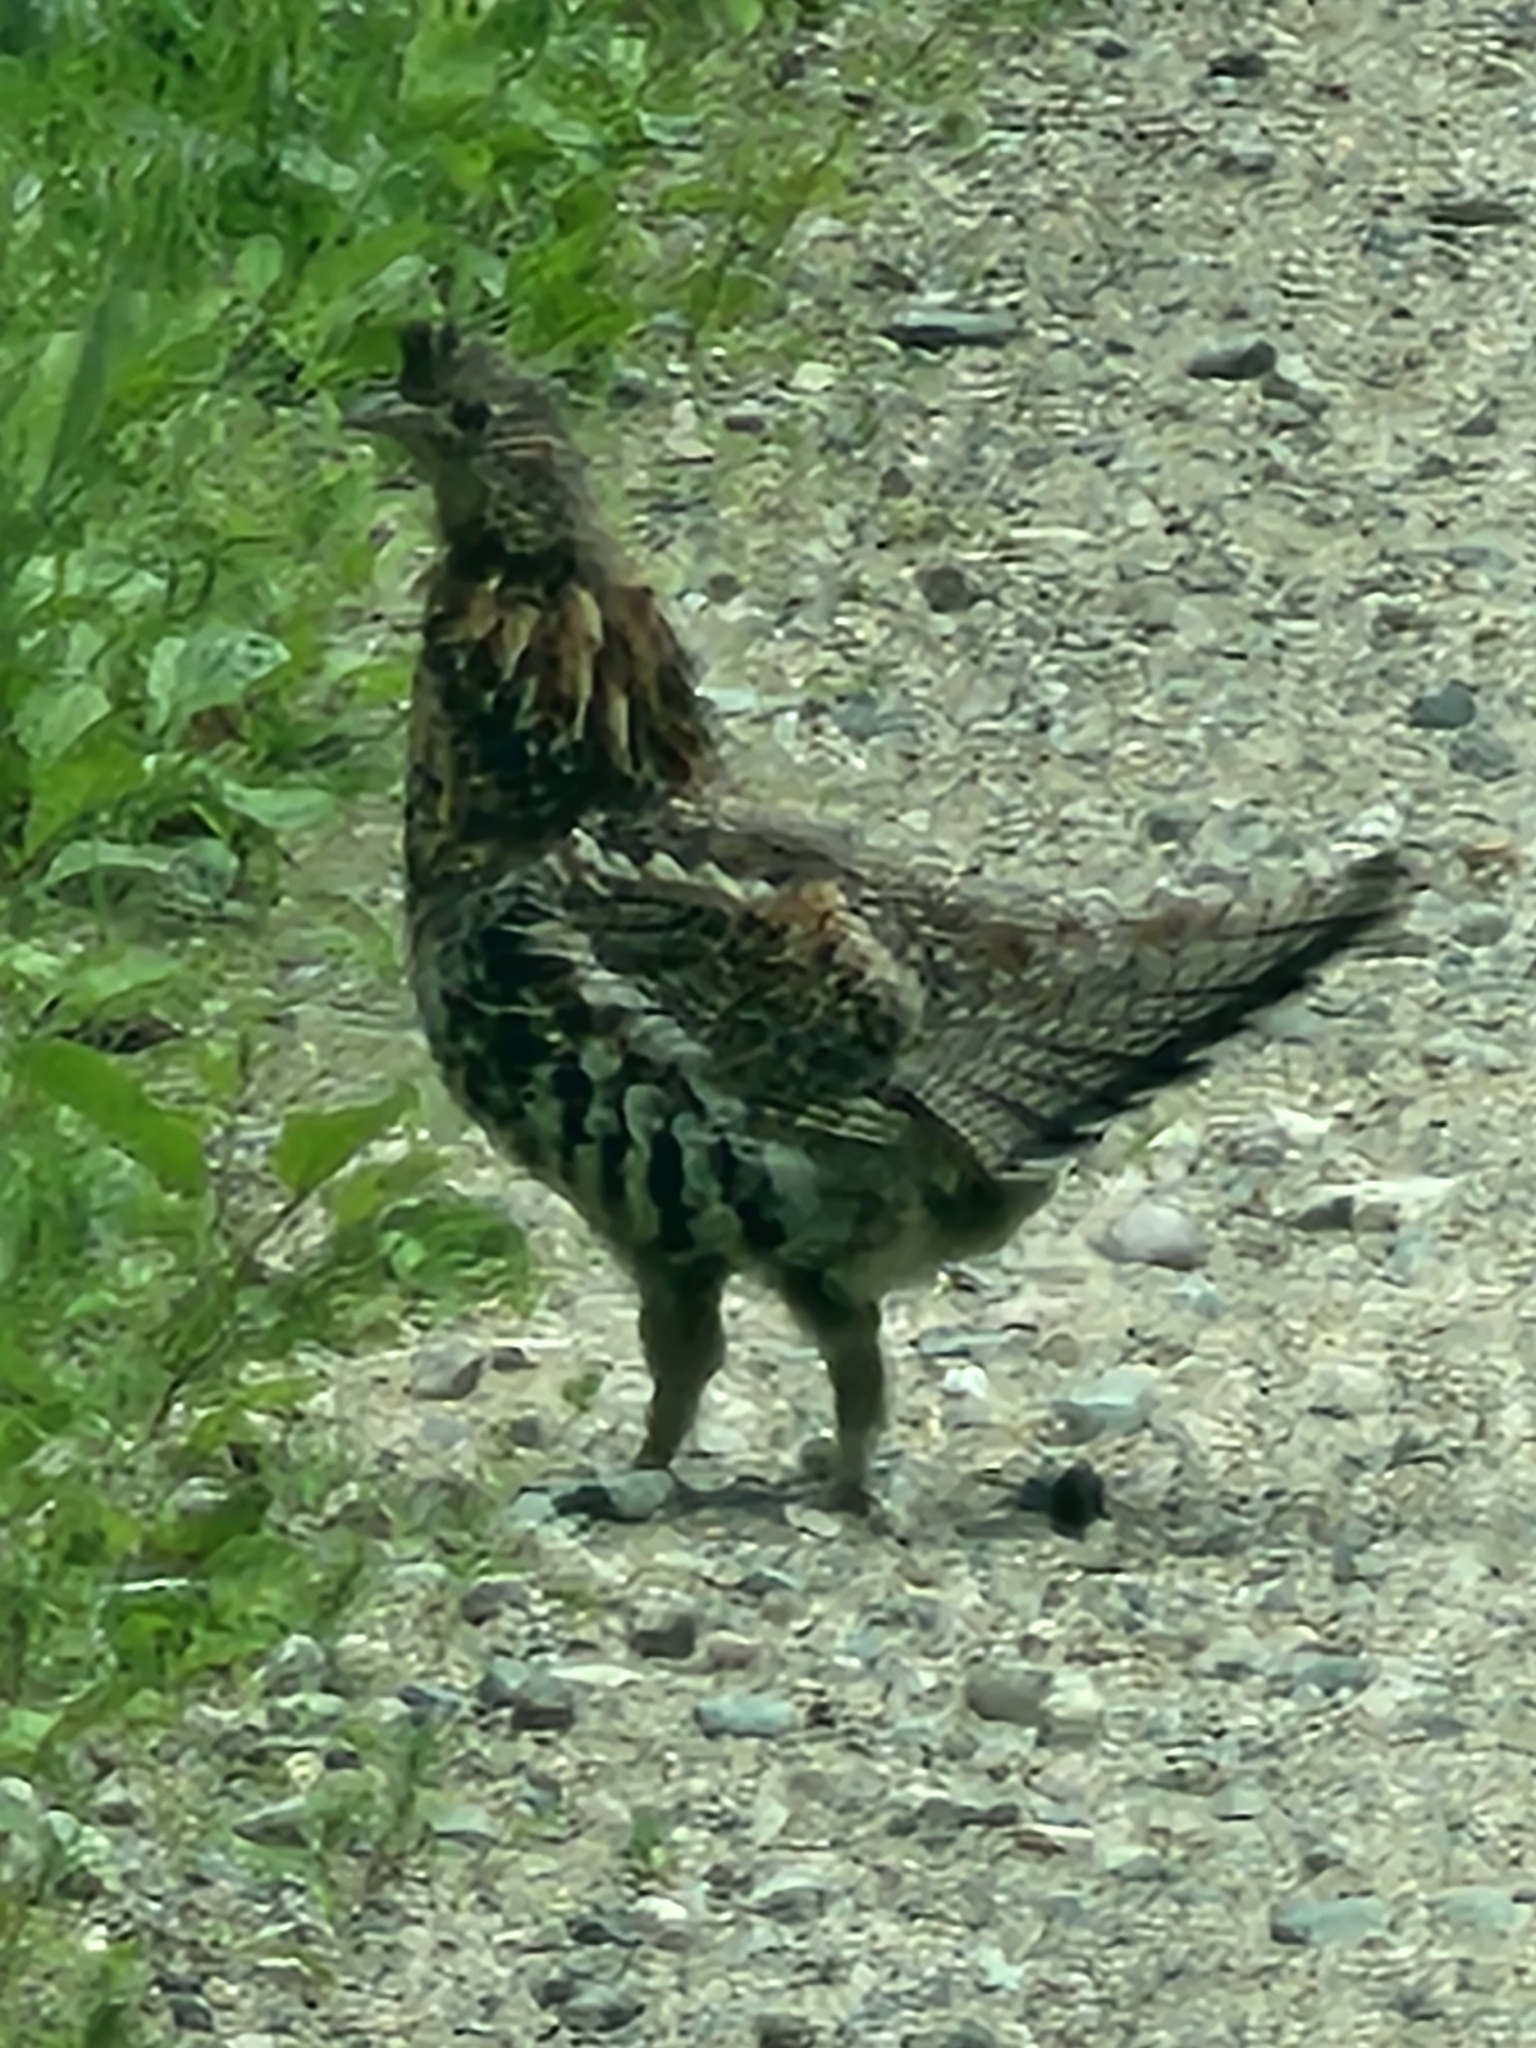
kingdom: Animalia
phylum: Chordata
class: Aves
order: Galliformes
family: Phasianidae
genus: Bonasa
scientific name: Bonasa umbellus
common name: Ruffed grouse
